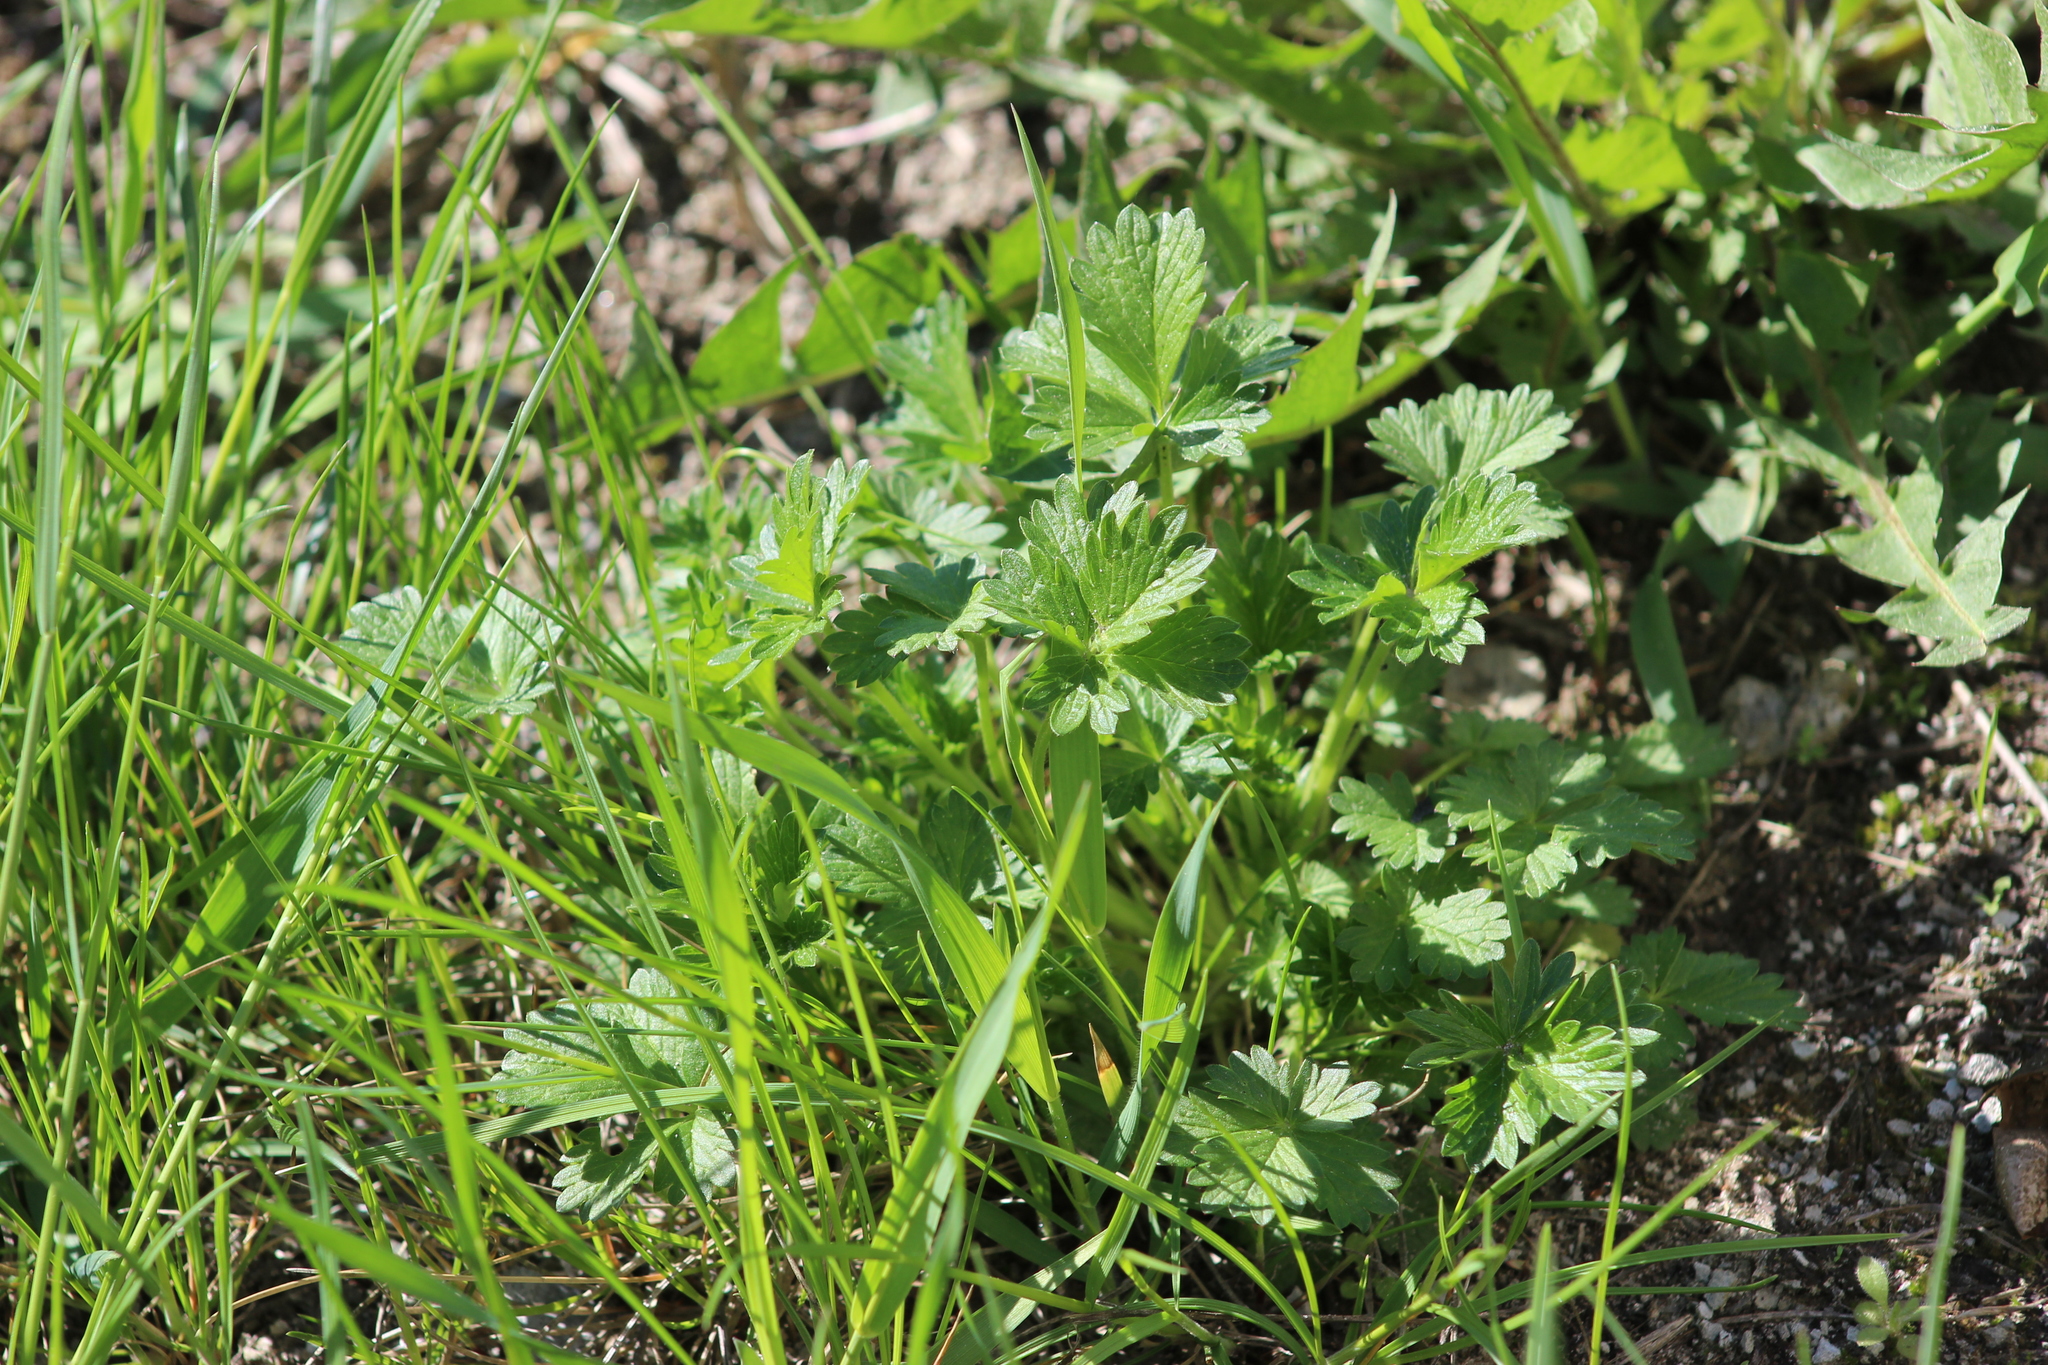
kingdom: Plantae
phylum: Tracheophyta
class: Magnoliopsida
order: Rosales
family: Rosaceae
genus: Potentilla
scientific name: Potentilla intermedia
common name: Downy cinquefoil
